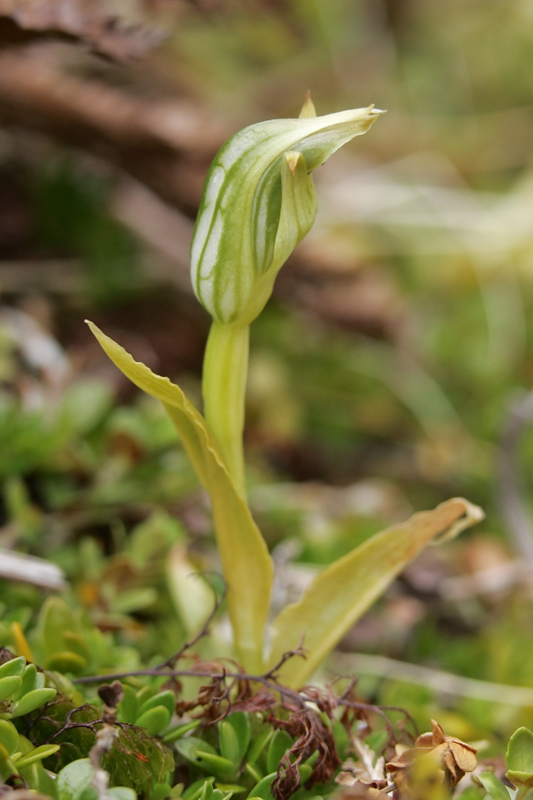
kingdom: Plantae
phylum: Tracheophyta
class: Liliopsida
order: Asparagales
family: Orchidaceae
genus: Pterostylis
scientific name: Pterostylis montana
